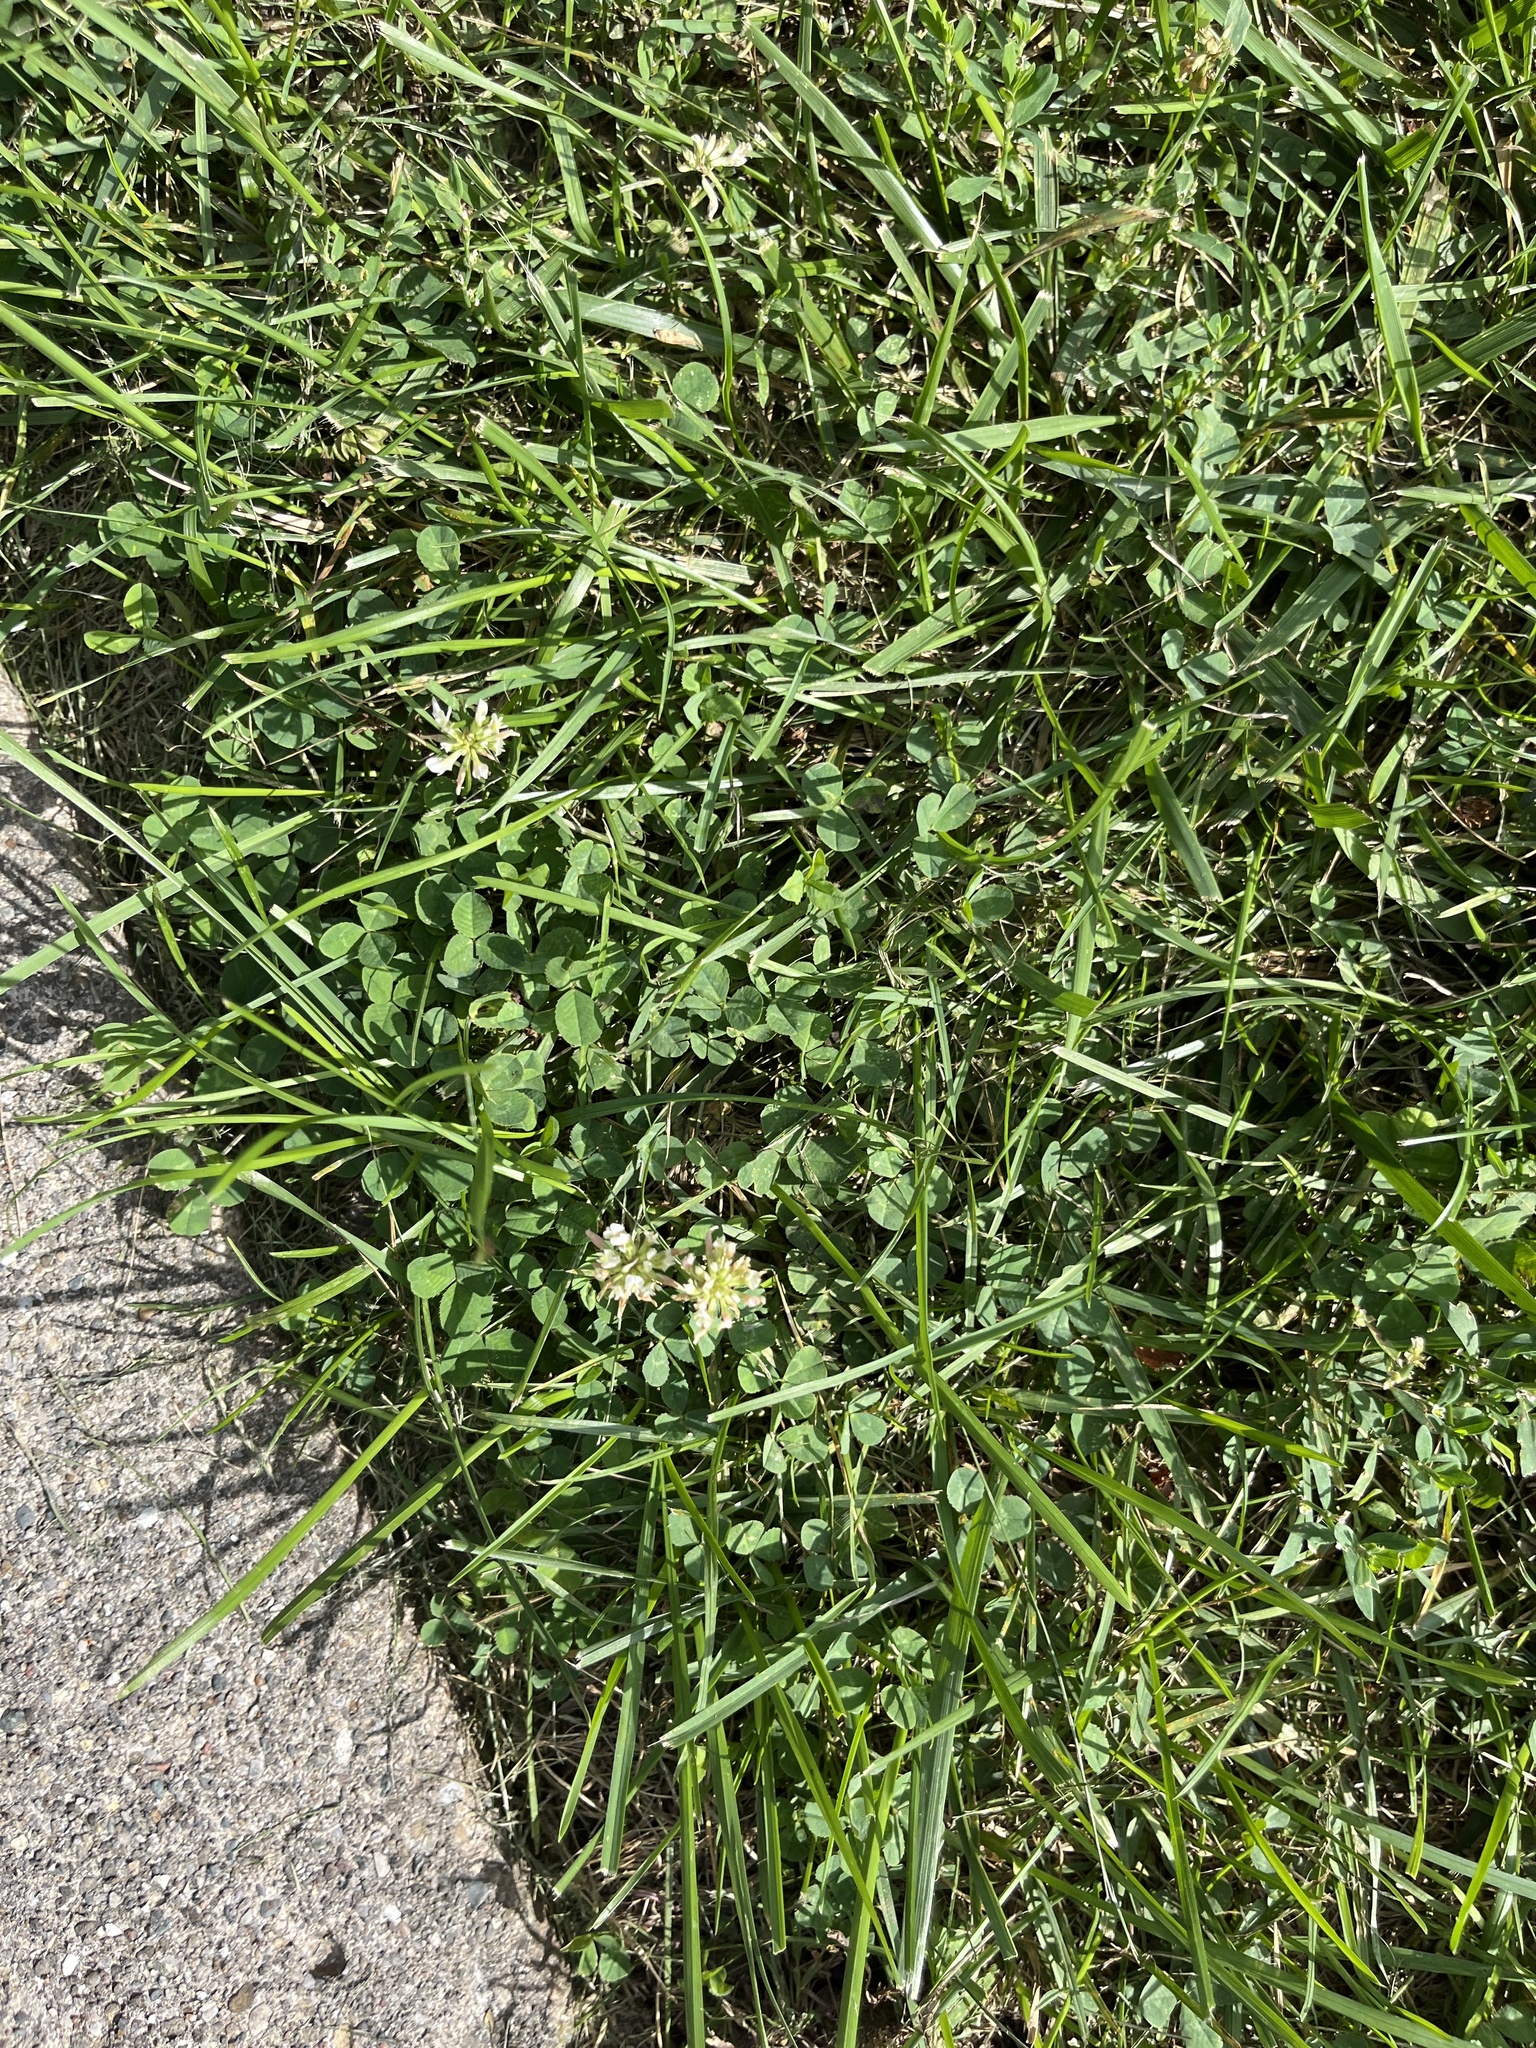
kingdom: Plantae
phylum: Tracheophyta
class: Magnoliopsida
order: Fabales
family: Fabaceae
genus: Trifolium
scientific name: Trifolium repens
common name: White clover
